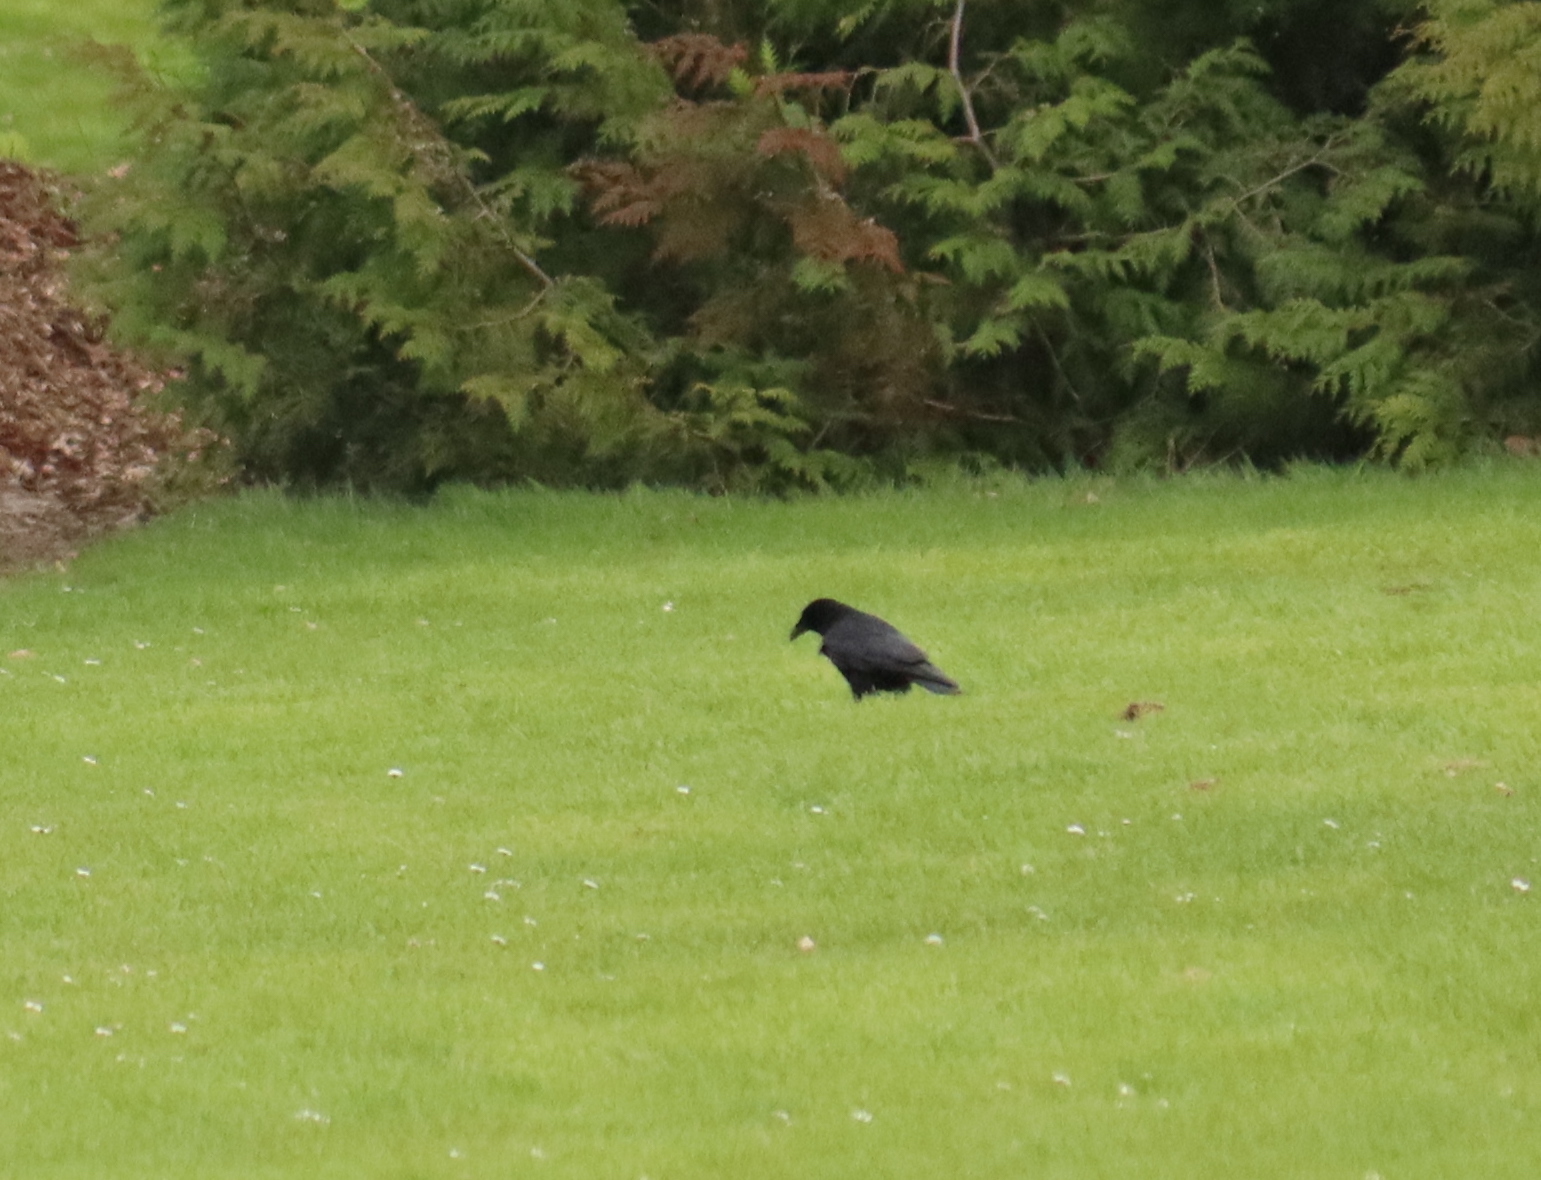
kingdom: Animalia
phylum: Chordata
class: Aves
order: Passeriformes
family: Corvidae
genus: Corvus
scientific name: Corvus corone
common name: Carrion crow
